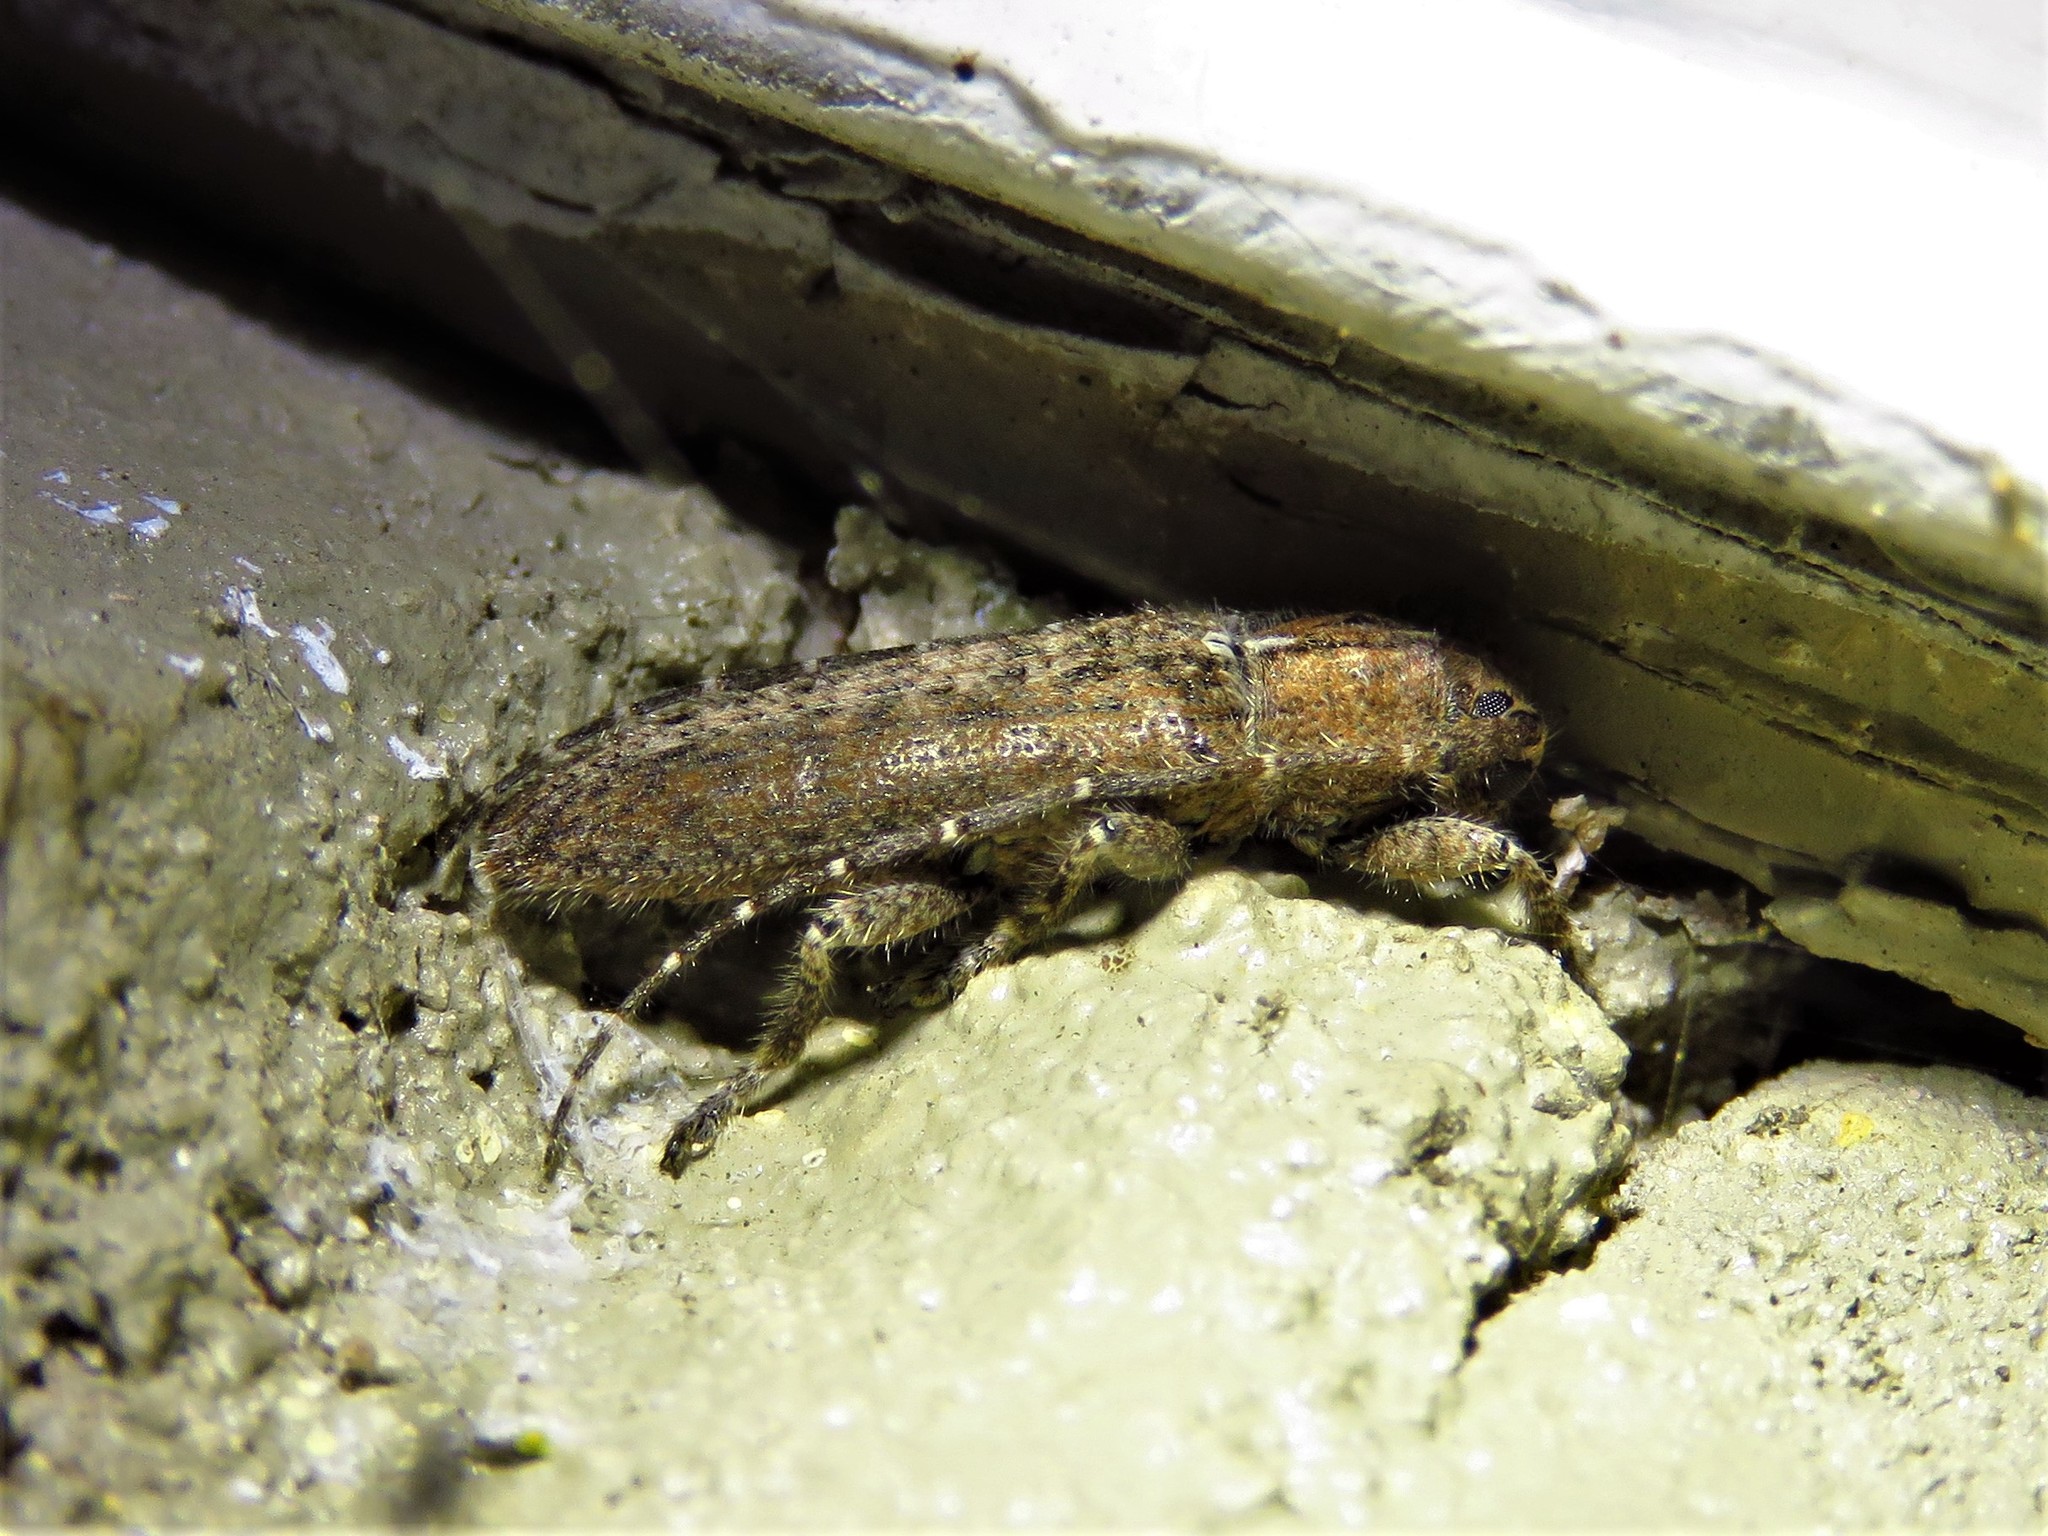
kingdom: Animalia
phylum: Arthropoda
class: Insecta
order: Coleoptera
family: Cerambycidae
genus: Ataxia
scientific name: Ataxia crypta
